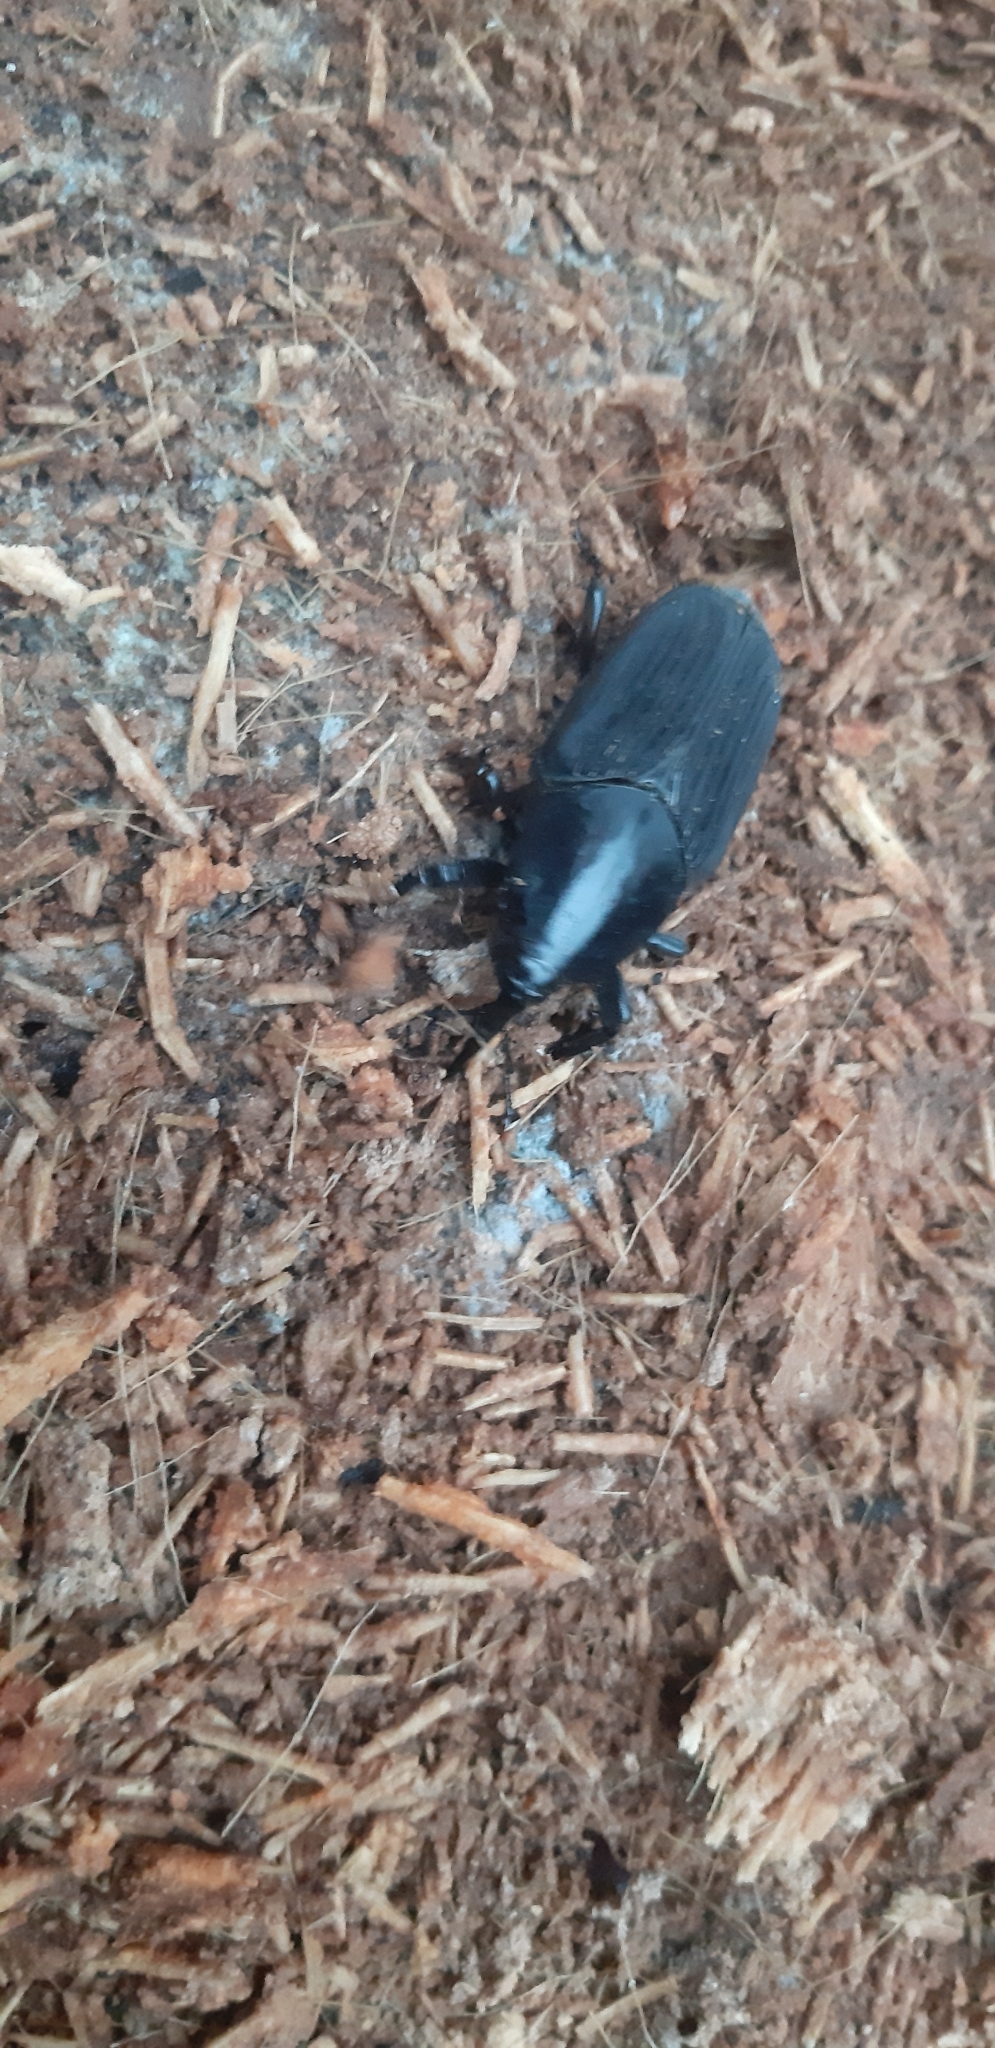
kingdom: Animalia
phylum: Arthropoda
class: Insecta
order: Coleoptera
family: Dryophthoridae
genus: Rhynchophorus
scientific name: Rhynchophorus palmarum
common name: Palm weevil
